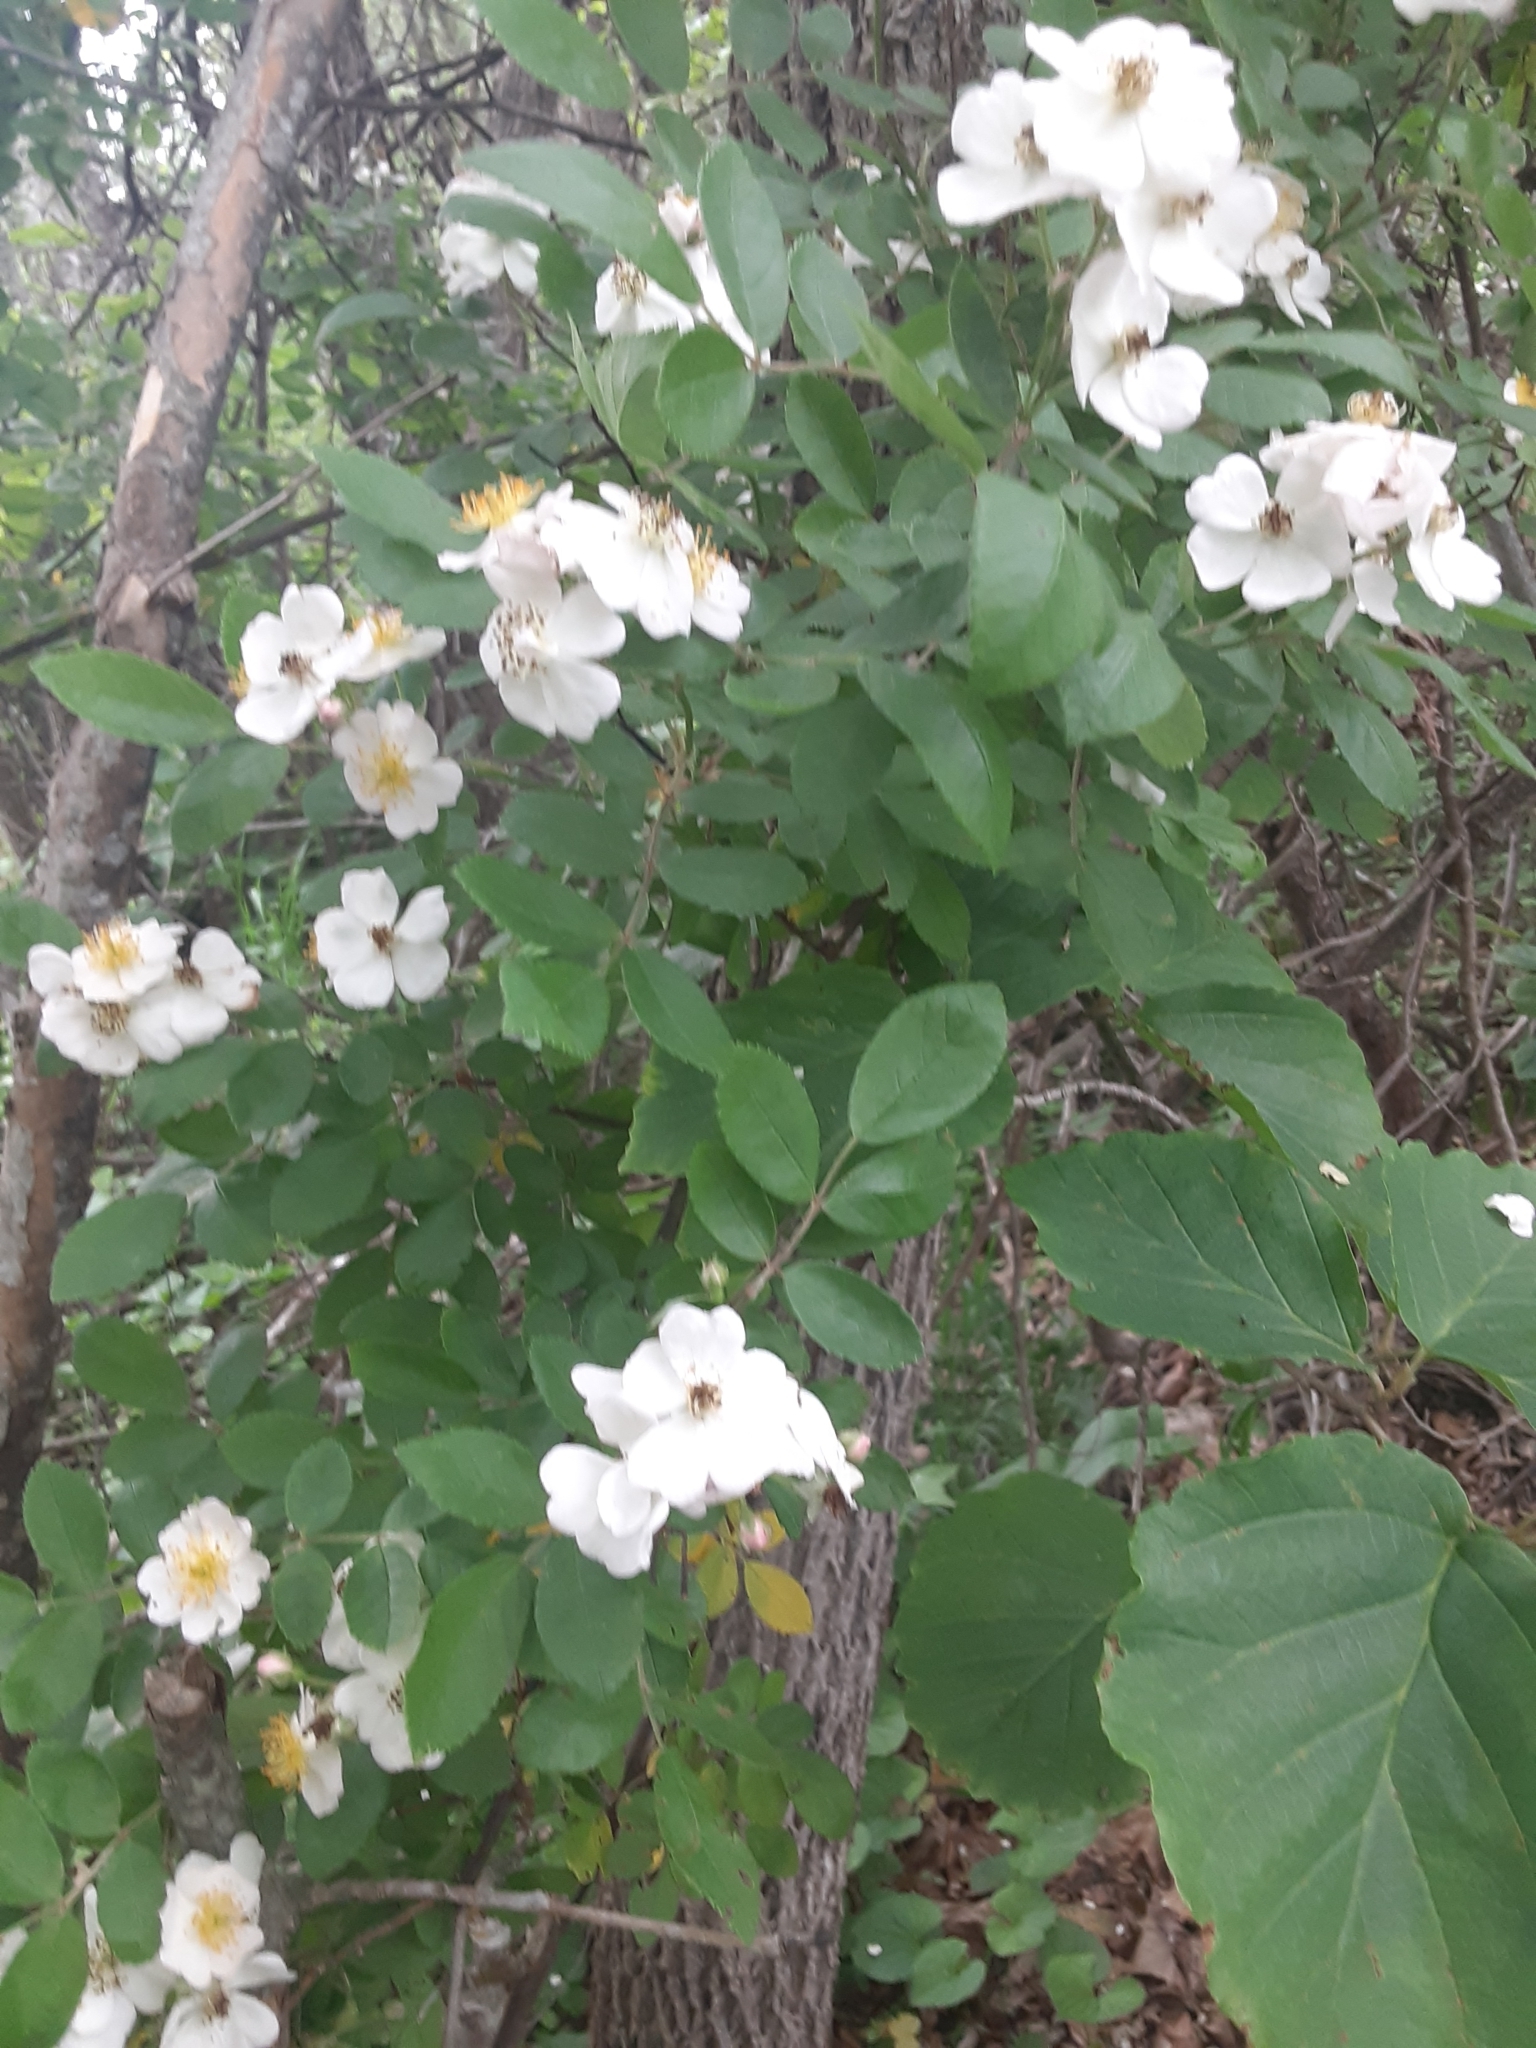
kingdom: Plantae
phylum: Tracheophyta
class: Magnoliopsida
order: Rosales
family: Rosaceae
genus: Rosa
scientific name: Rosa multiflora
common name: Multiflora rose
